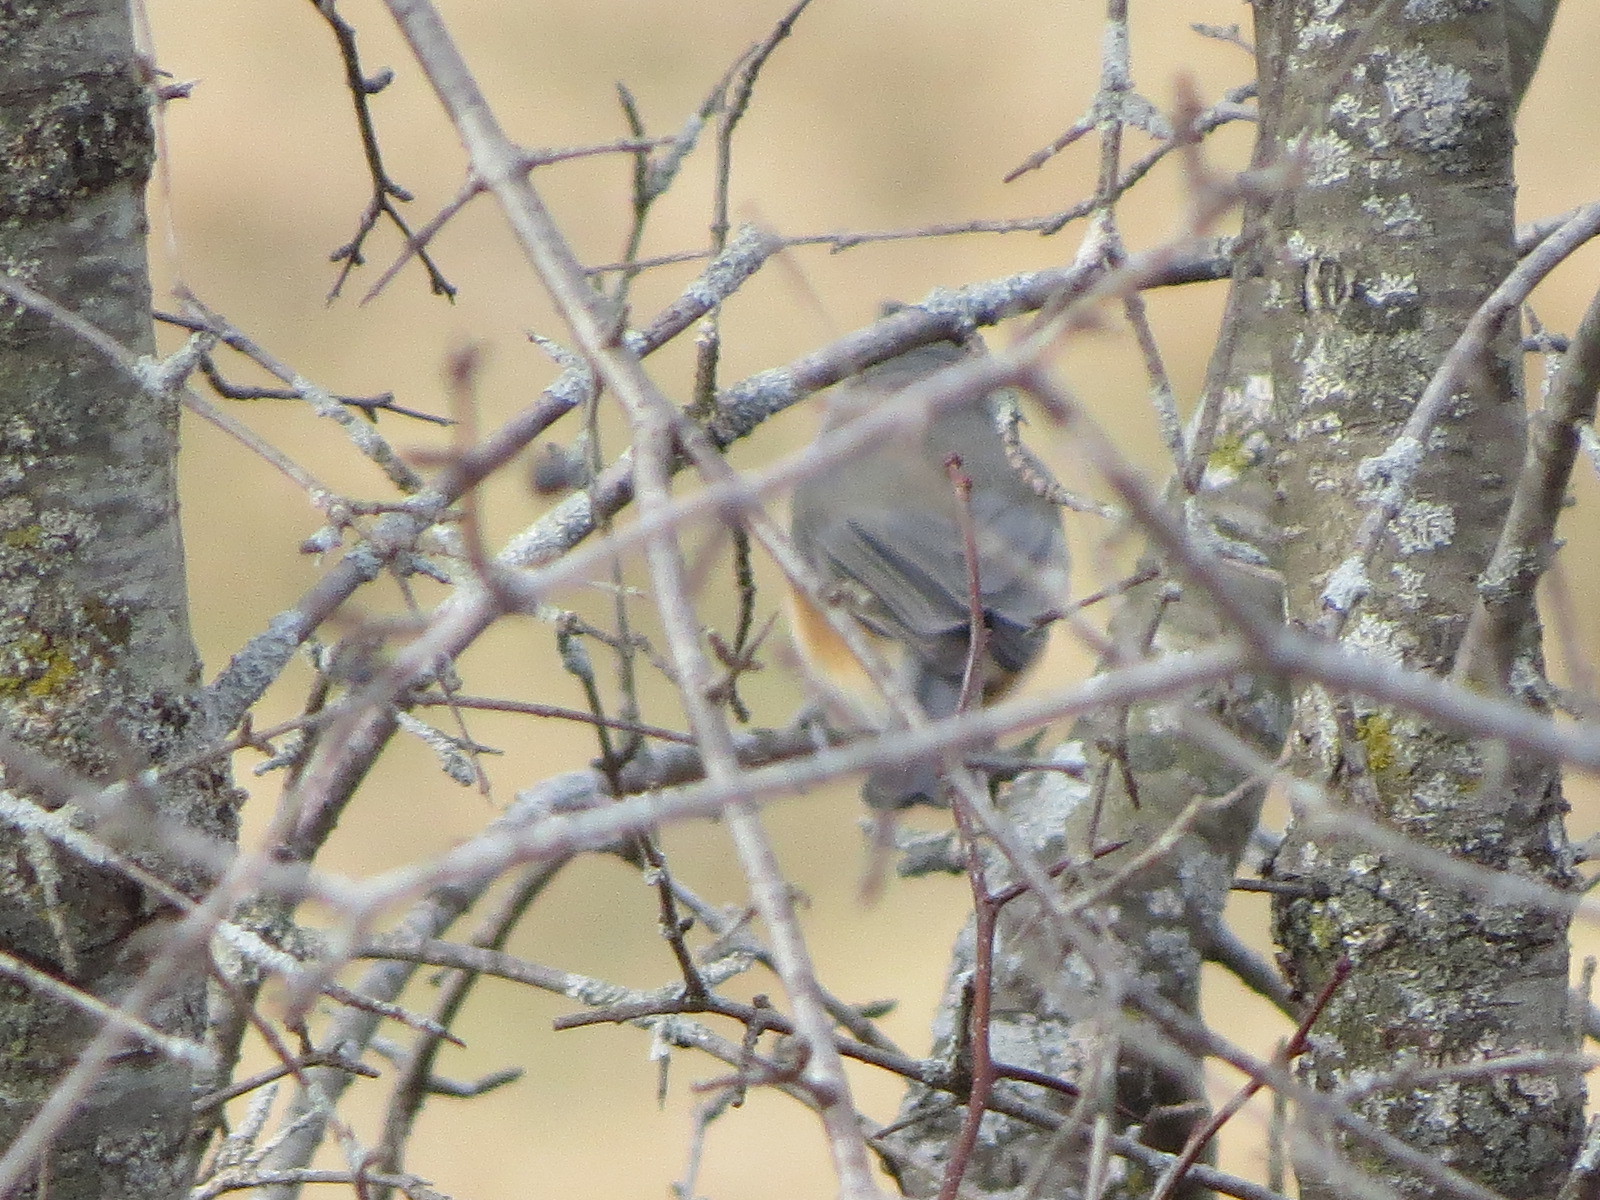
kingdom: Animalia
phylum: Chordata
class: Aves
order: Passeriformes
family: Paridae
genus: Baeolophus
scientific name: Baeolophus bicolor
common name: Tufted titmouse
